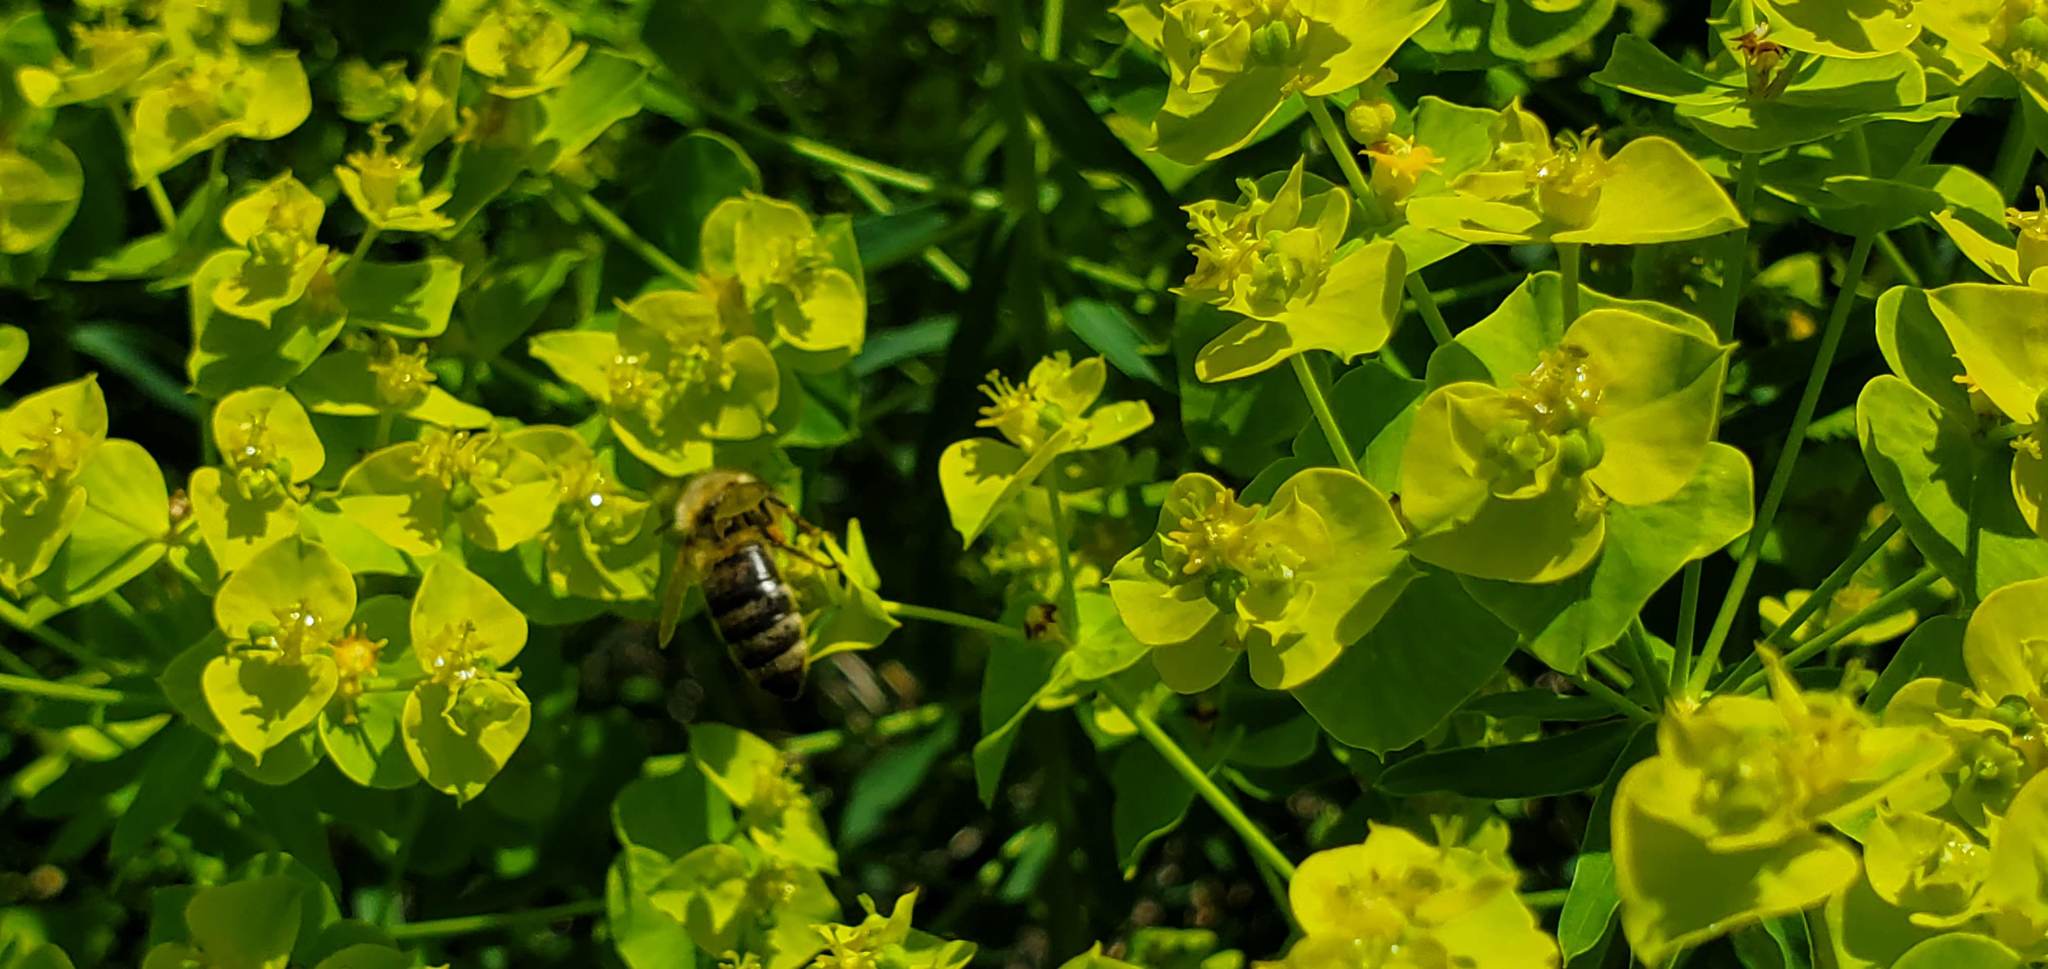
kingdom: Animalia
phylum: Arthropoda
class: Insecta
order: Hymenoptera
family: Apidae
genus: Apis
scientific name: Apis mellifera
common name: Honey bee
